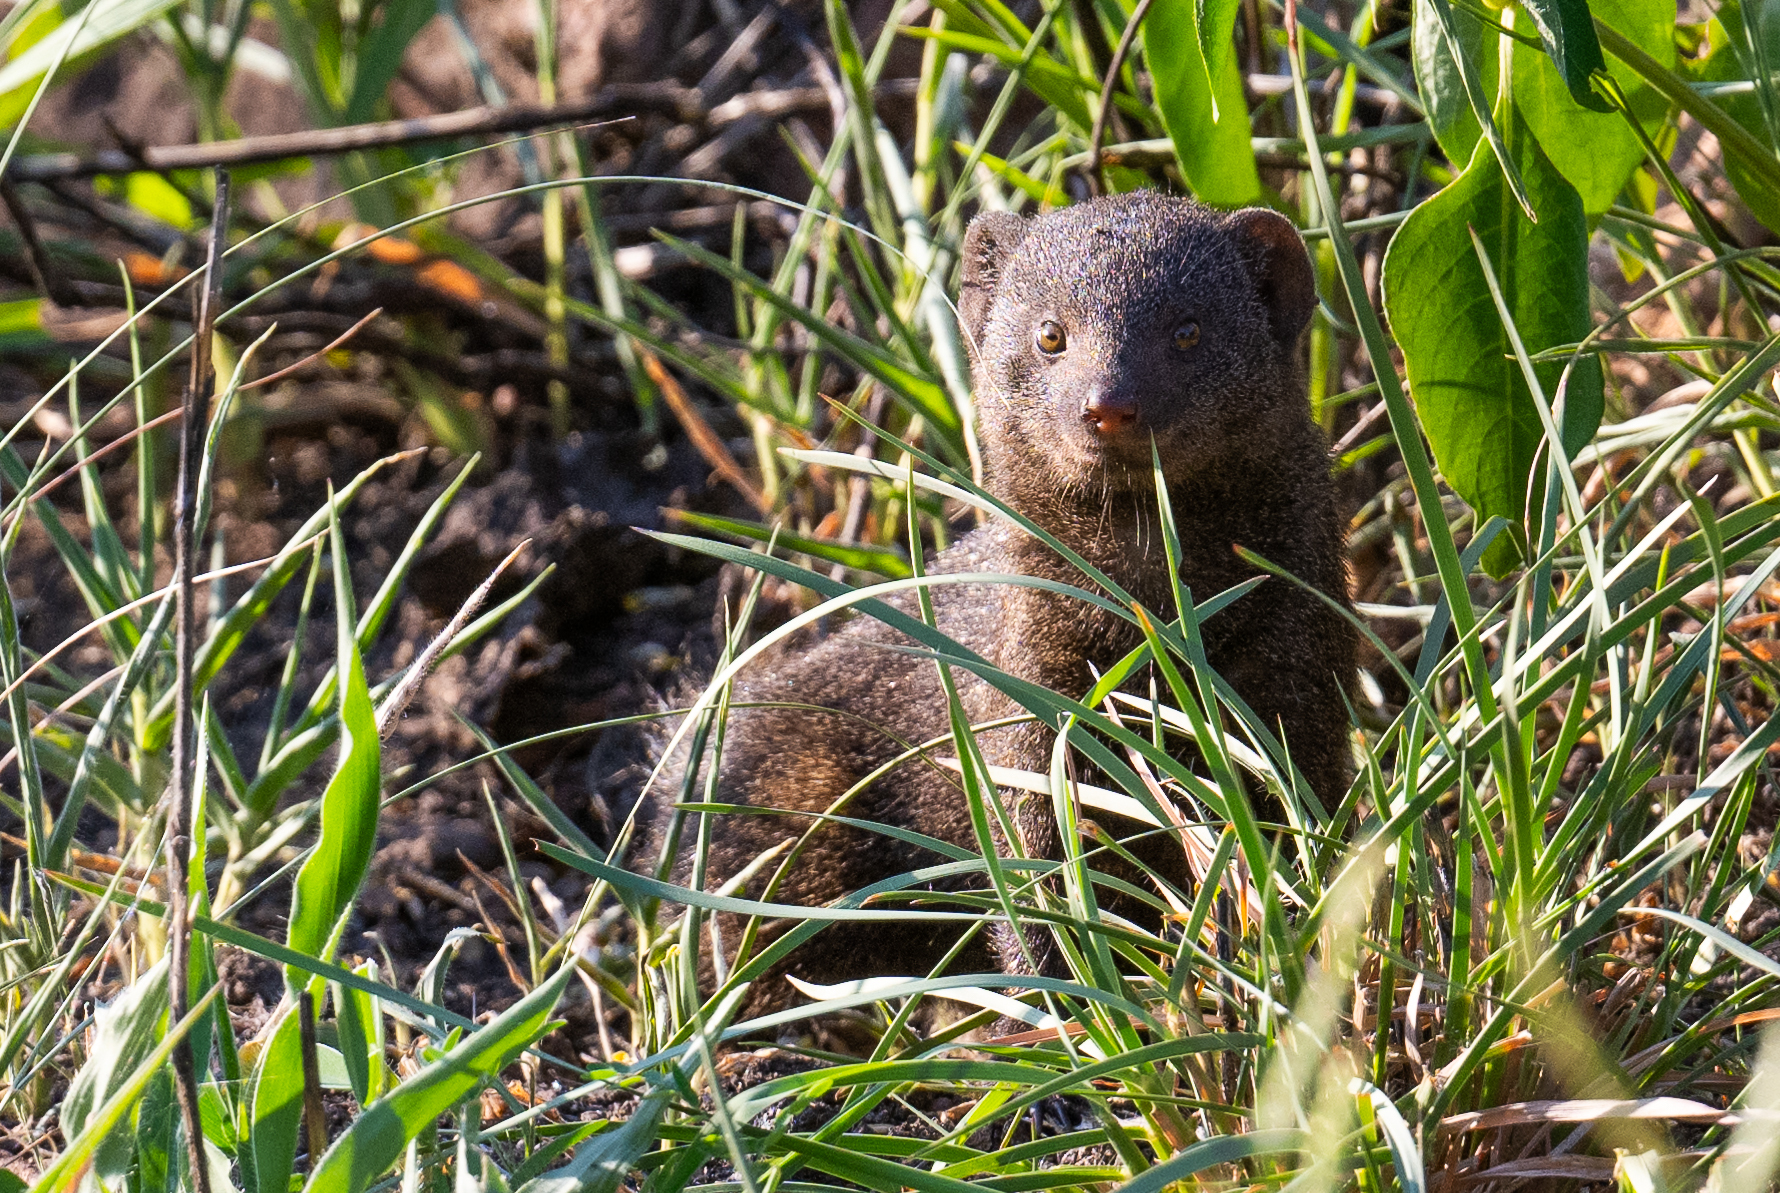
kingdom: Animalia
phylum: Chordata
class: Mammalia
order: Carnivora
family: Herpestidae
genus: Helogale
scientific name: Helogale parvula
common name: Common dwarf mongoose
